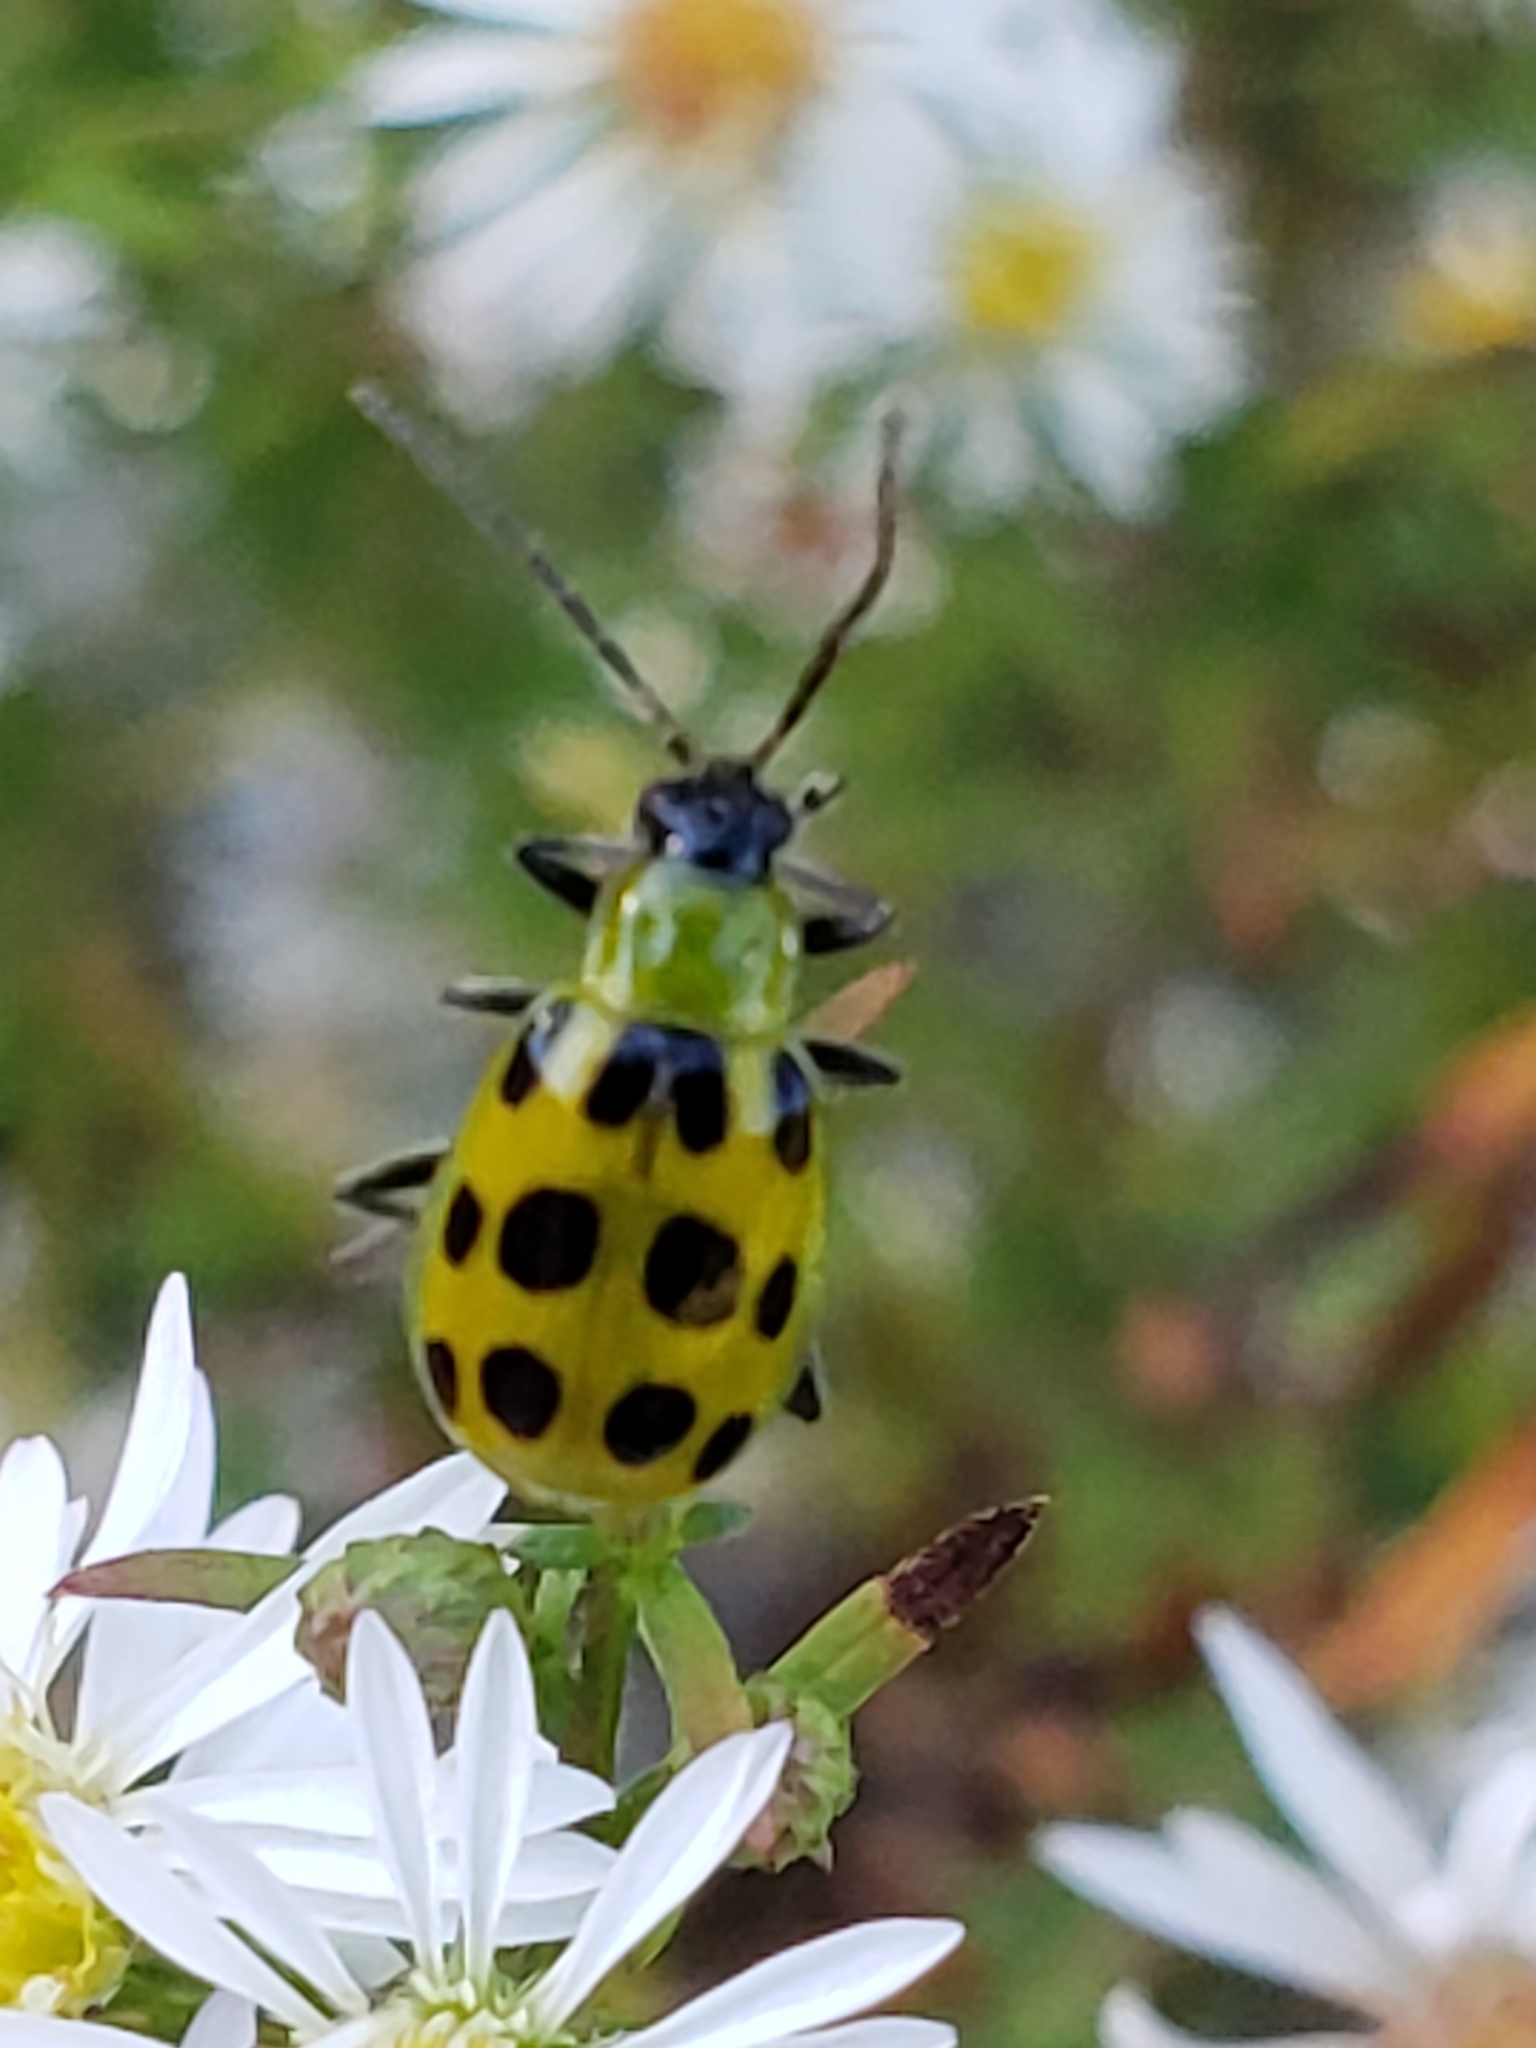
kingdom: Animalia
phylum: Arthropoda
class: Insecta
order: Coleoptera
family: Chrysomelidae
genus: Diabrotica
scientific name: Diabrotica undecimpunctata
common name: Spotted cucumber beetle
